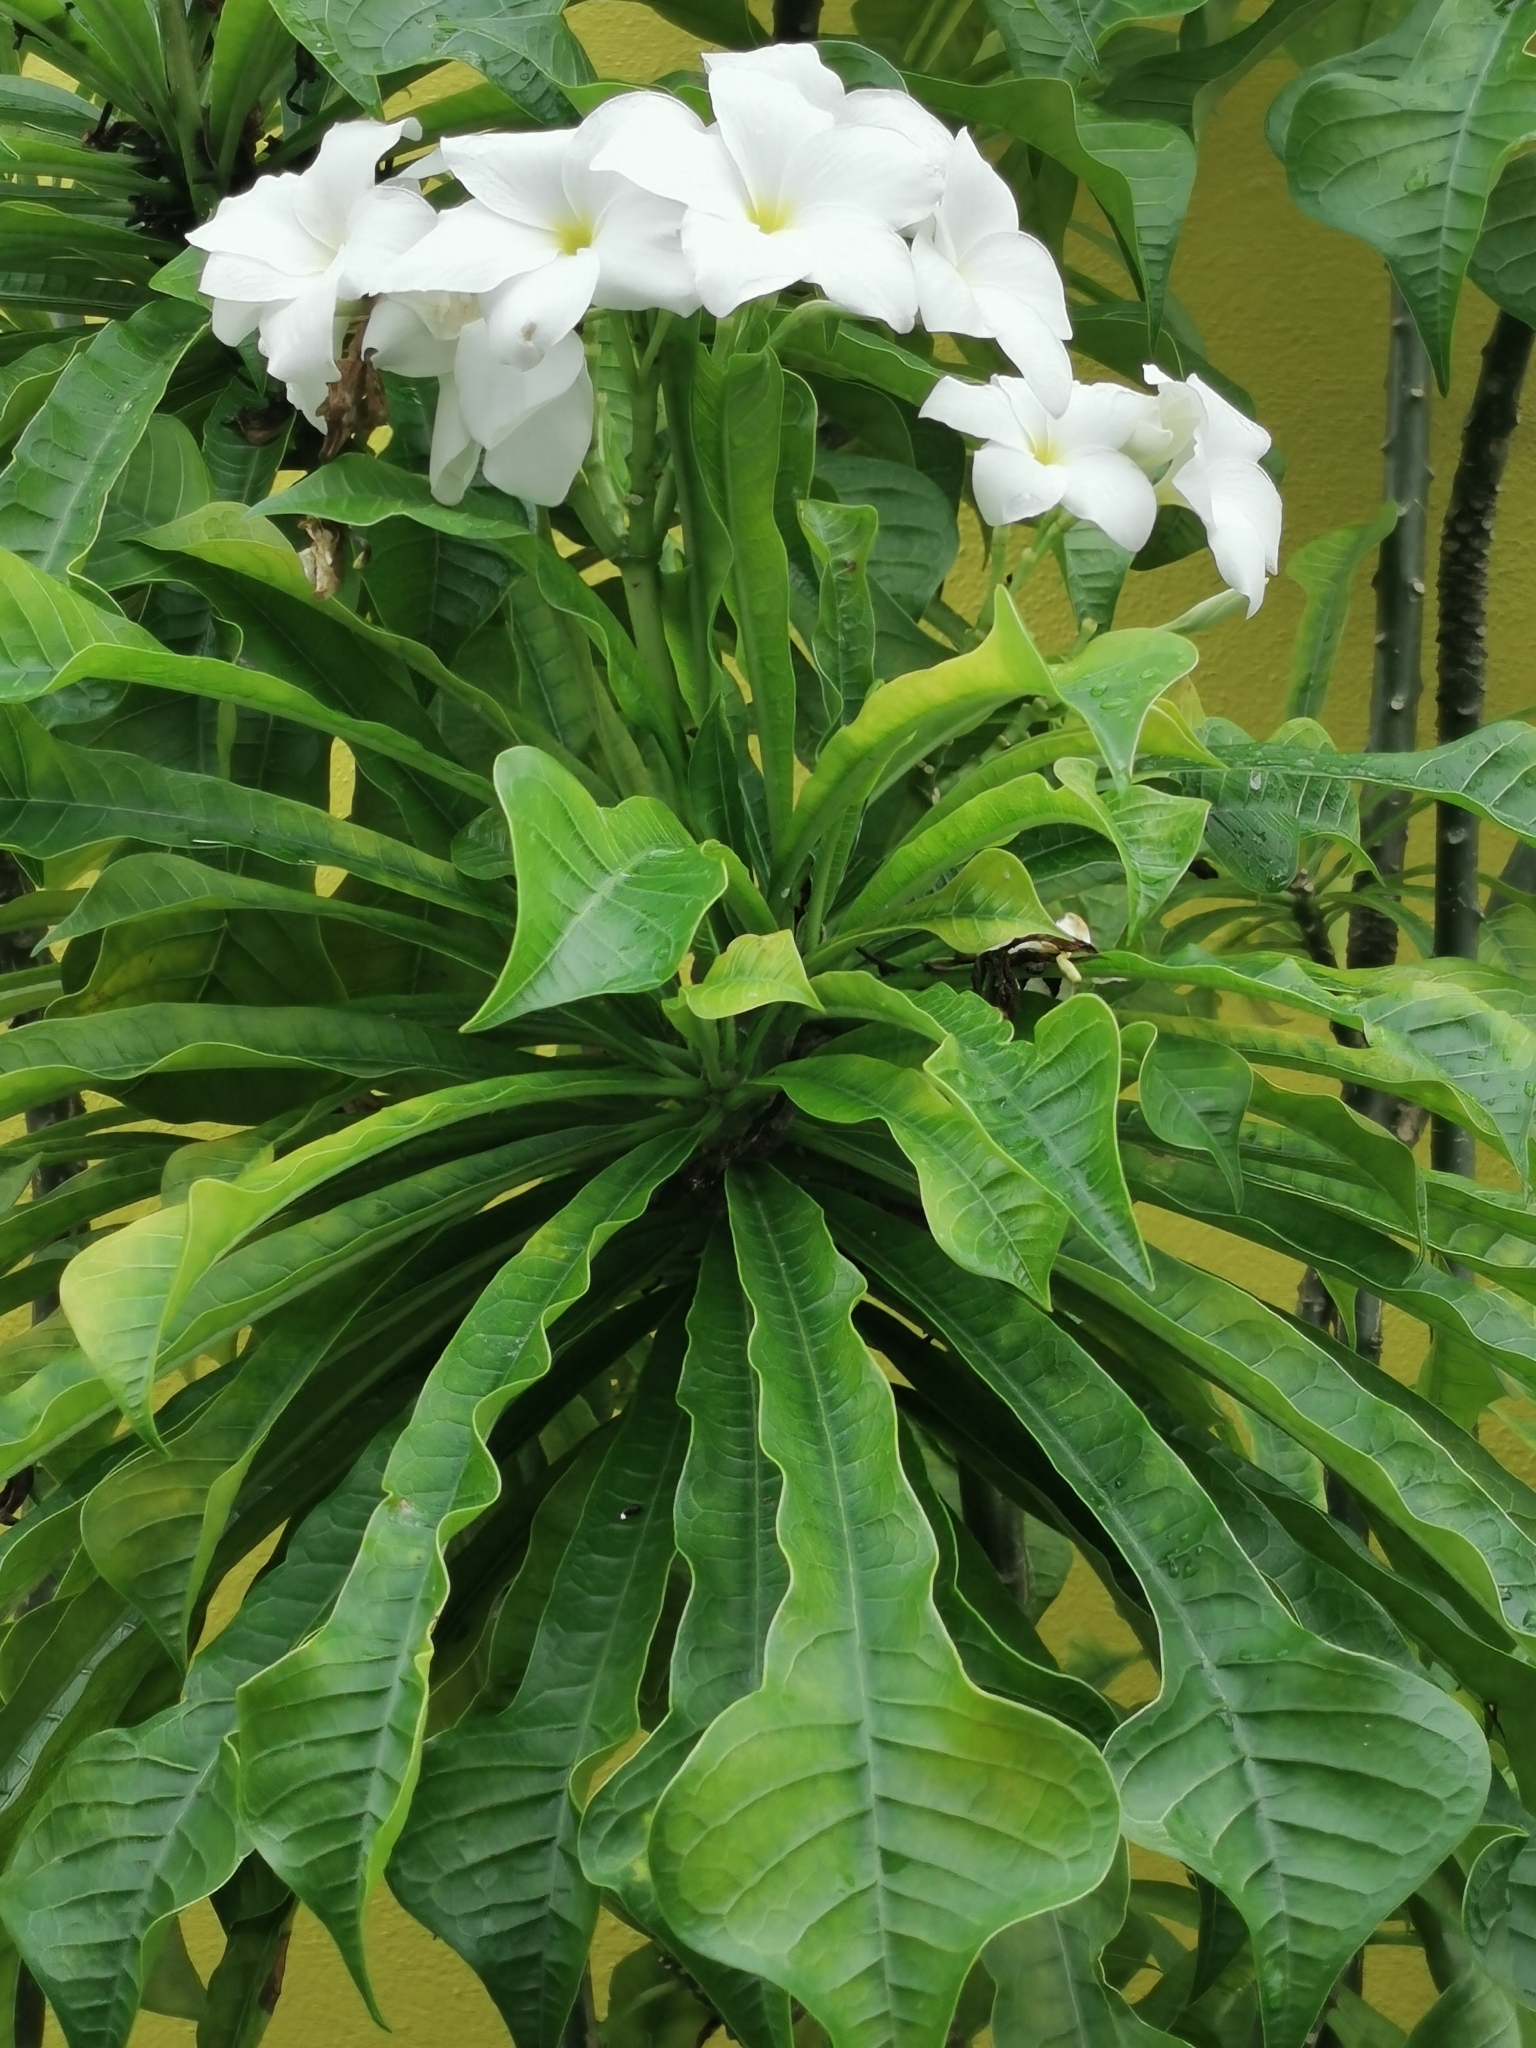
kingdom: Plantae
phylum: Tracheophyta
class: Magnoliopsida
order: Gentianales
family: Apocynaceae
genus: Plumeria
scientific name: Plumeria pudica
